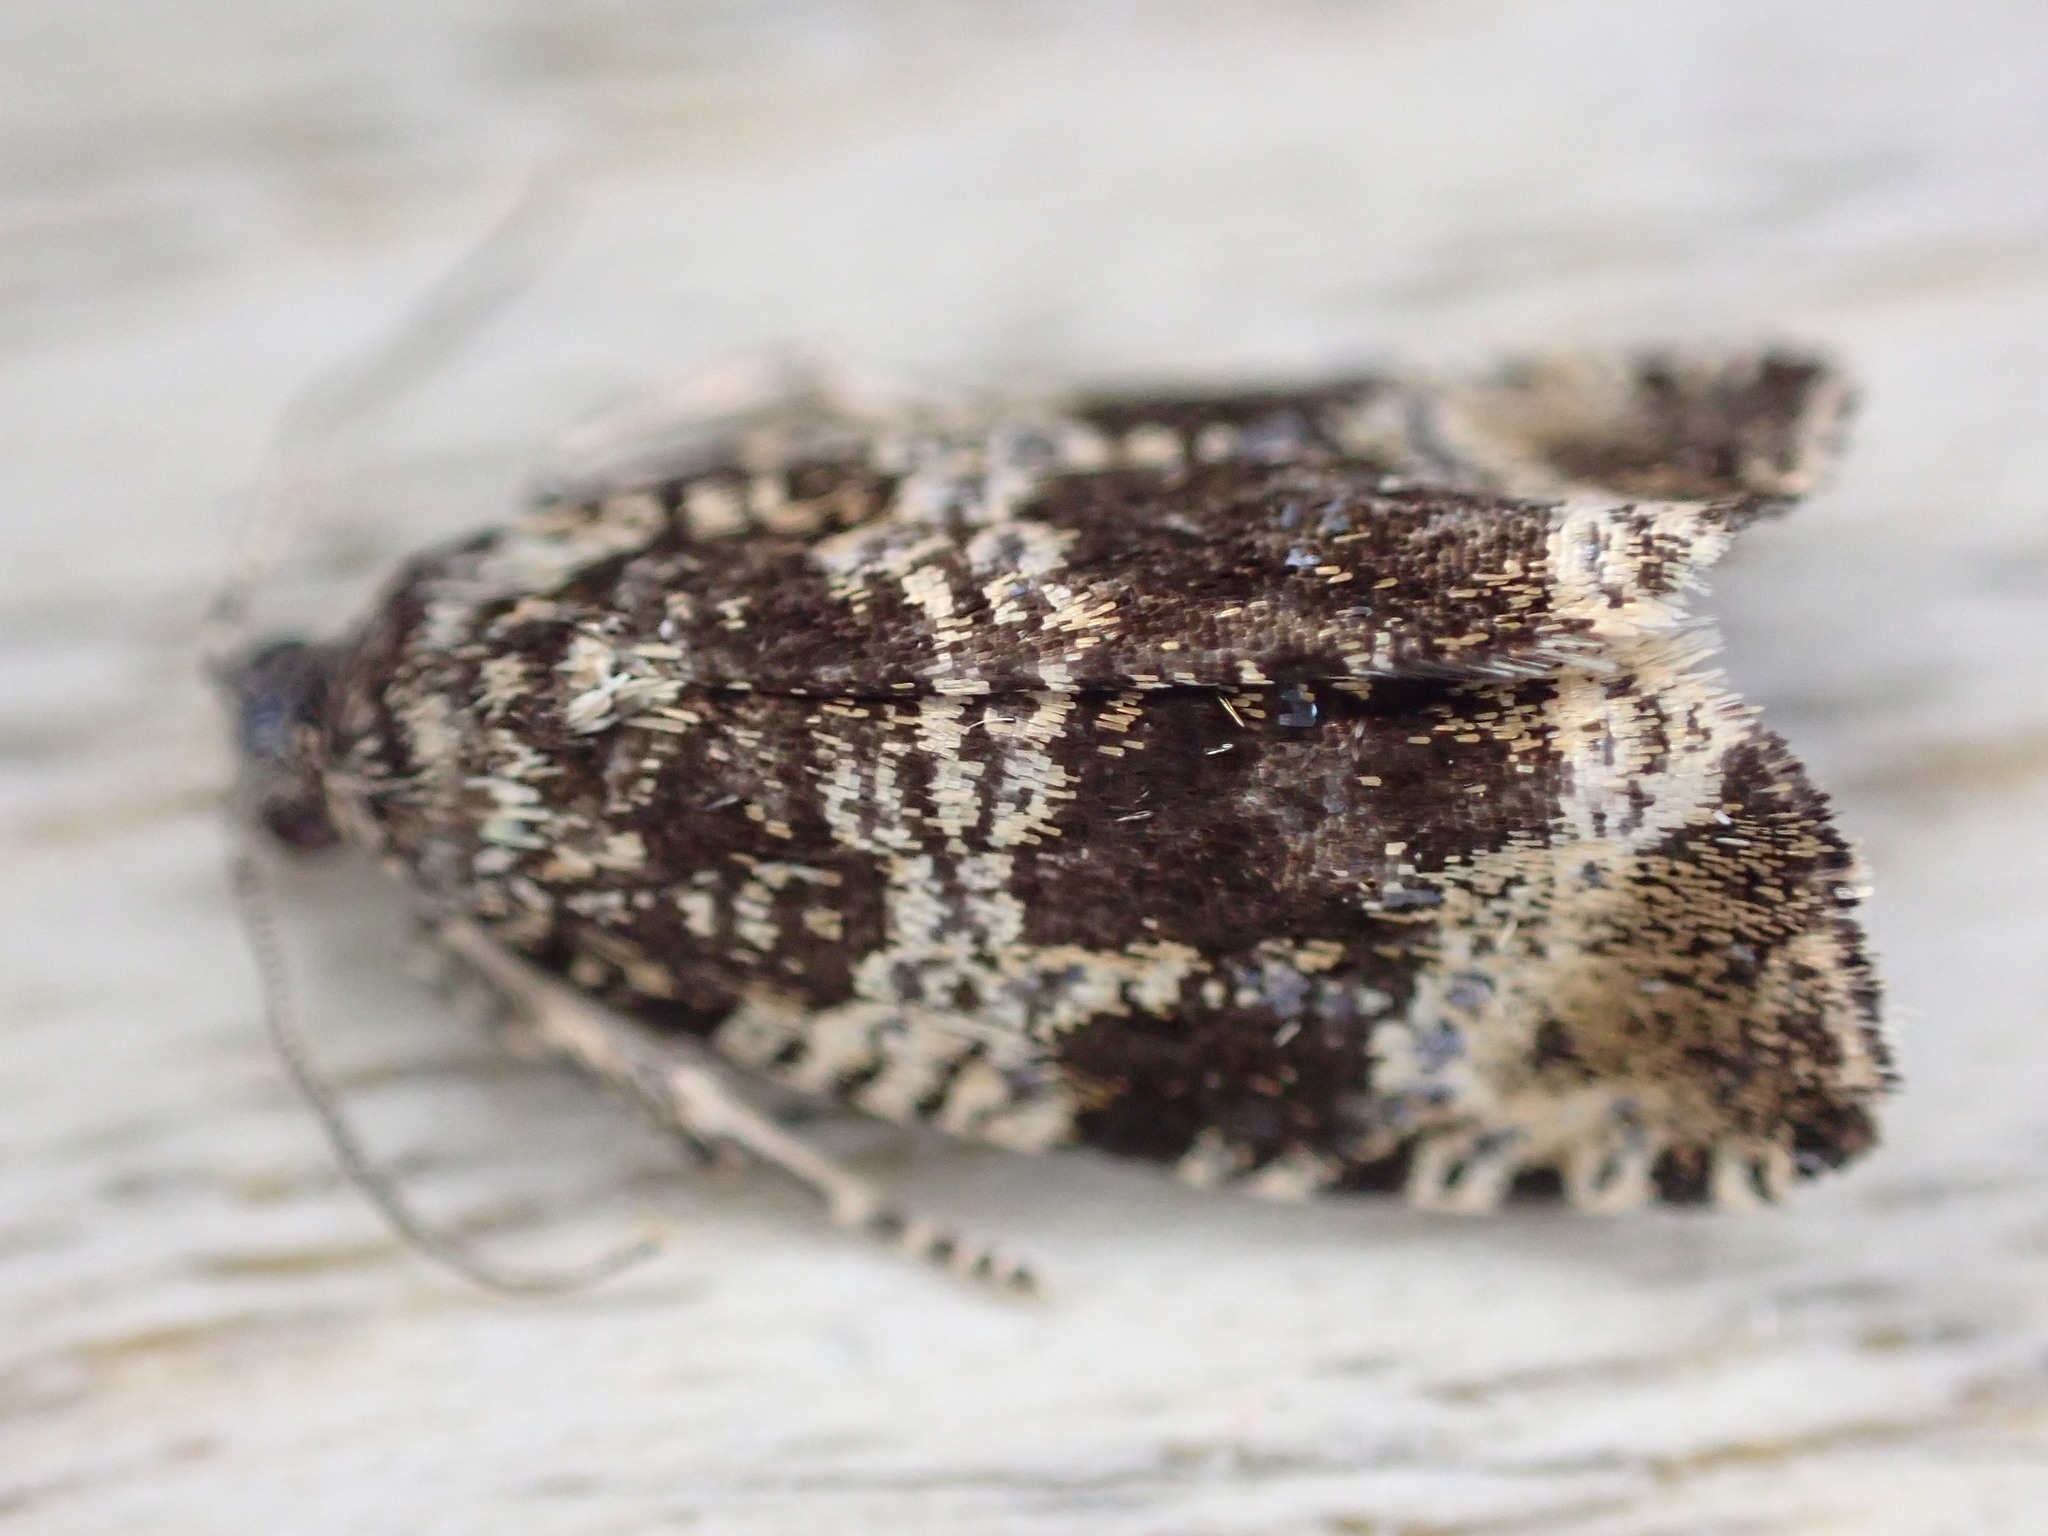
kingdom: Animalia
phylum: Arthropoda
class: Insecta
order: Lepidoptera
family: Tortricidae
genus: Syricoris
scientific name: Syricoris lacunana
